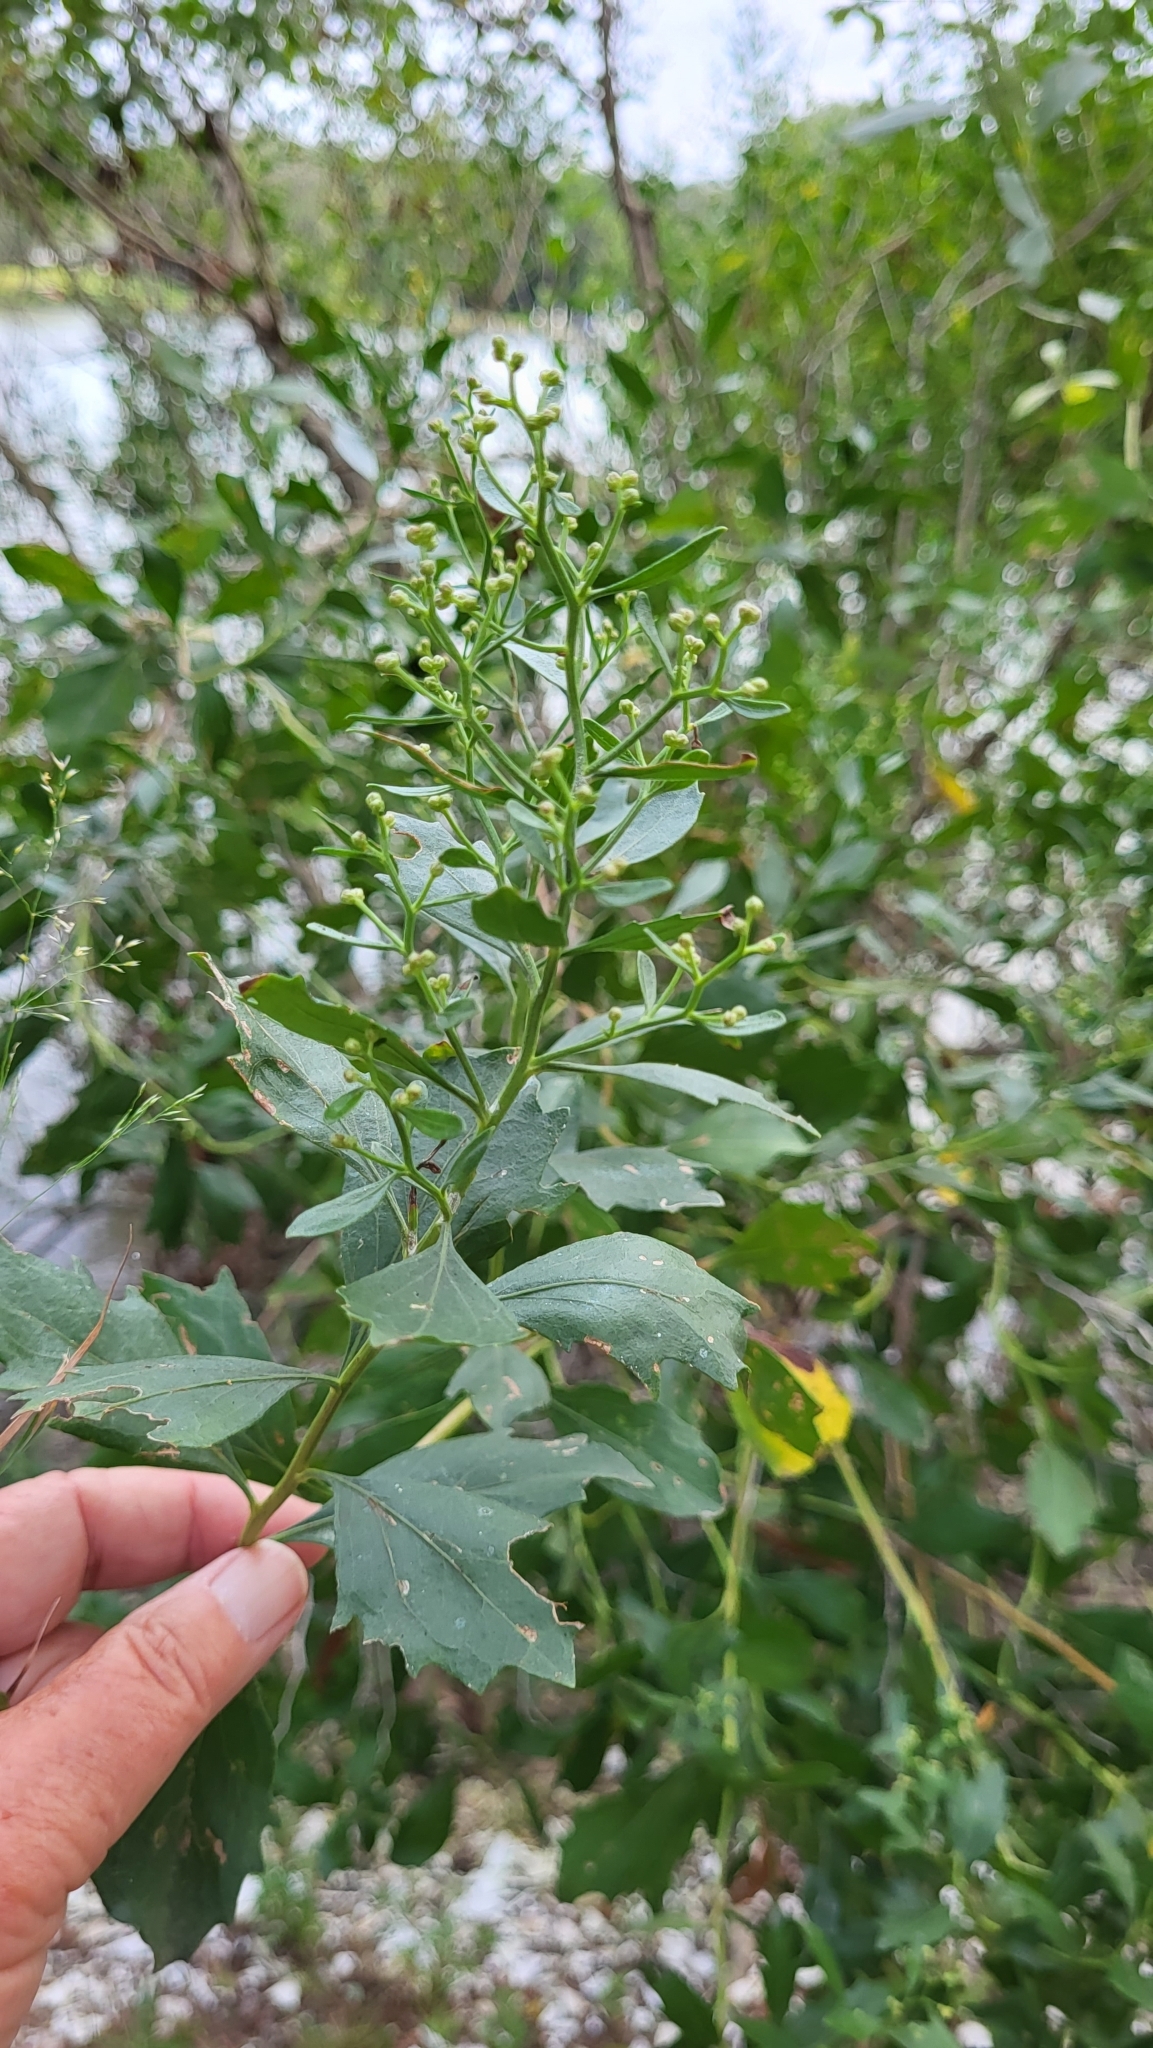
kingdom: Plantae
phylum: Tracheophyta
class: Magnoliopsida
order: Asterales
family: Asteraceae
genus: Baccharis
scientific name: Baccharis halimifolia
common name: Eastern baccharis
